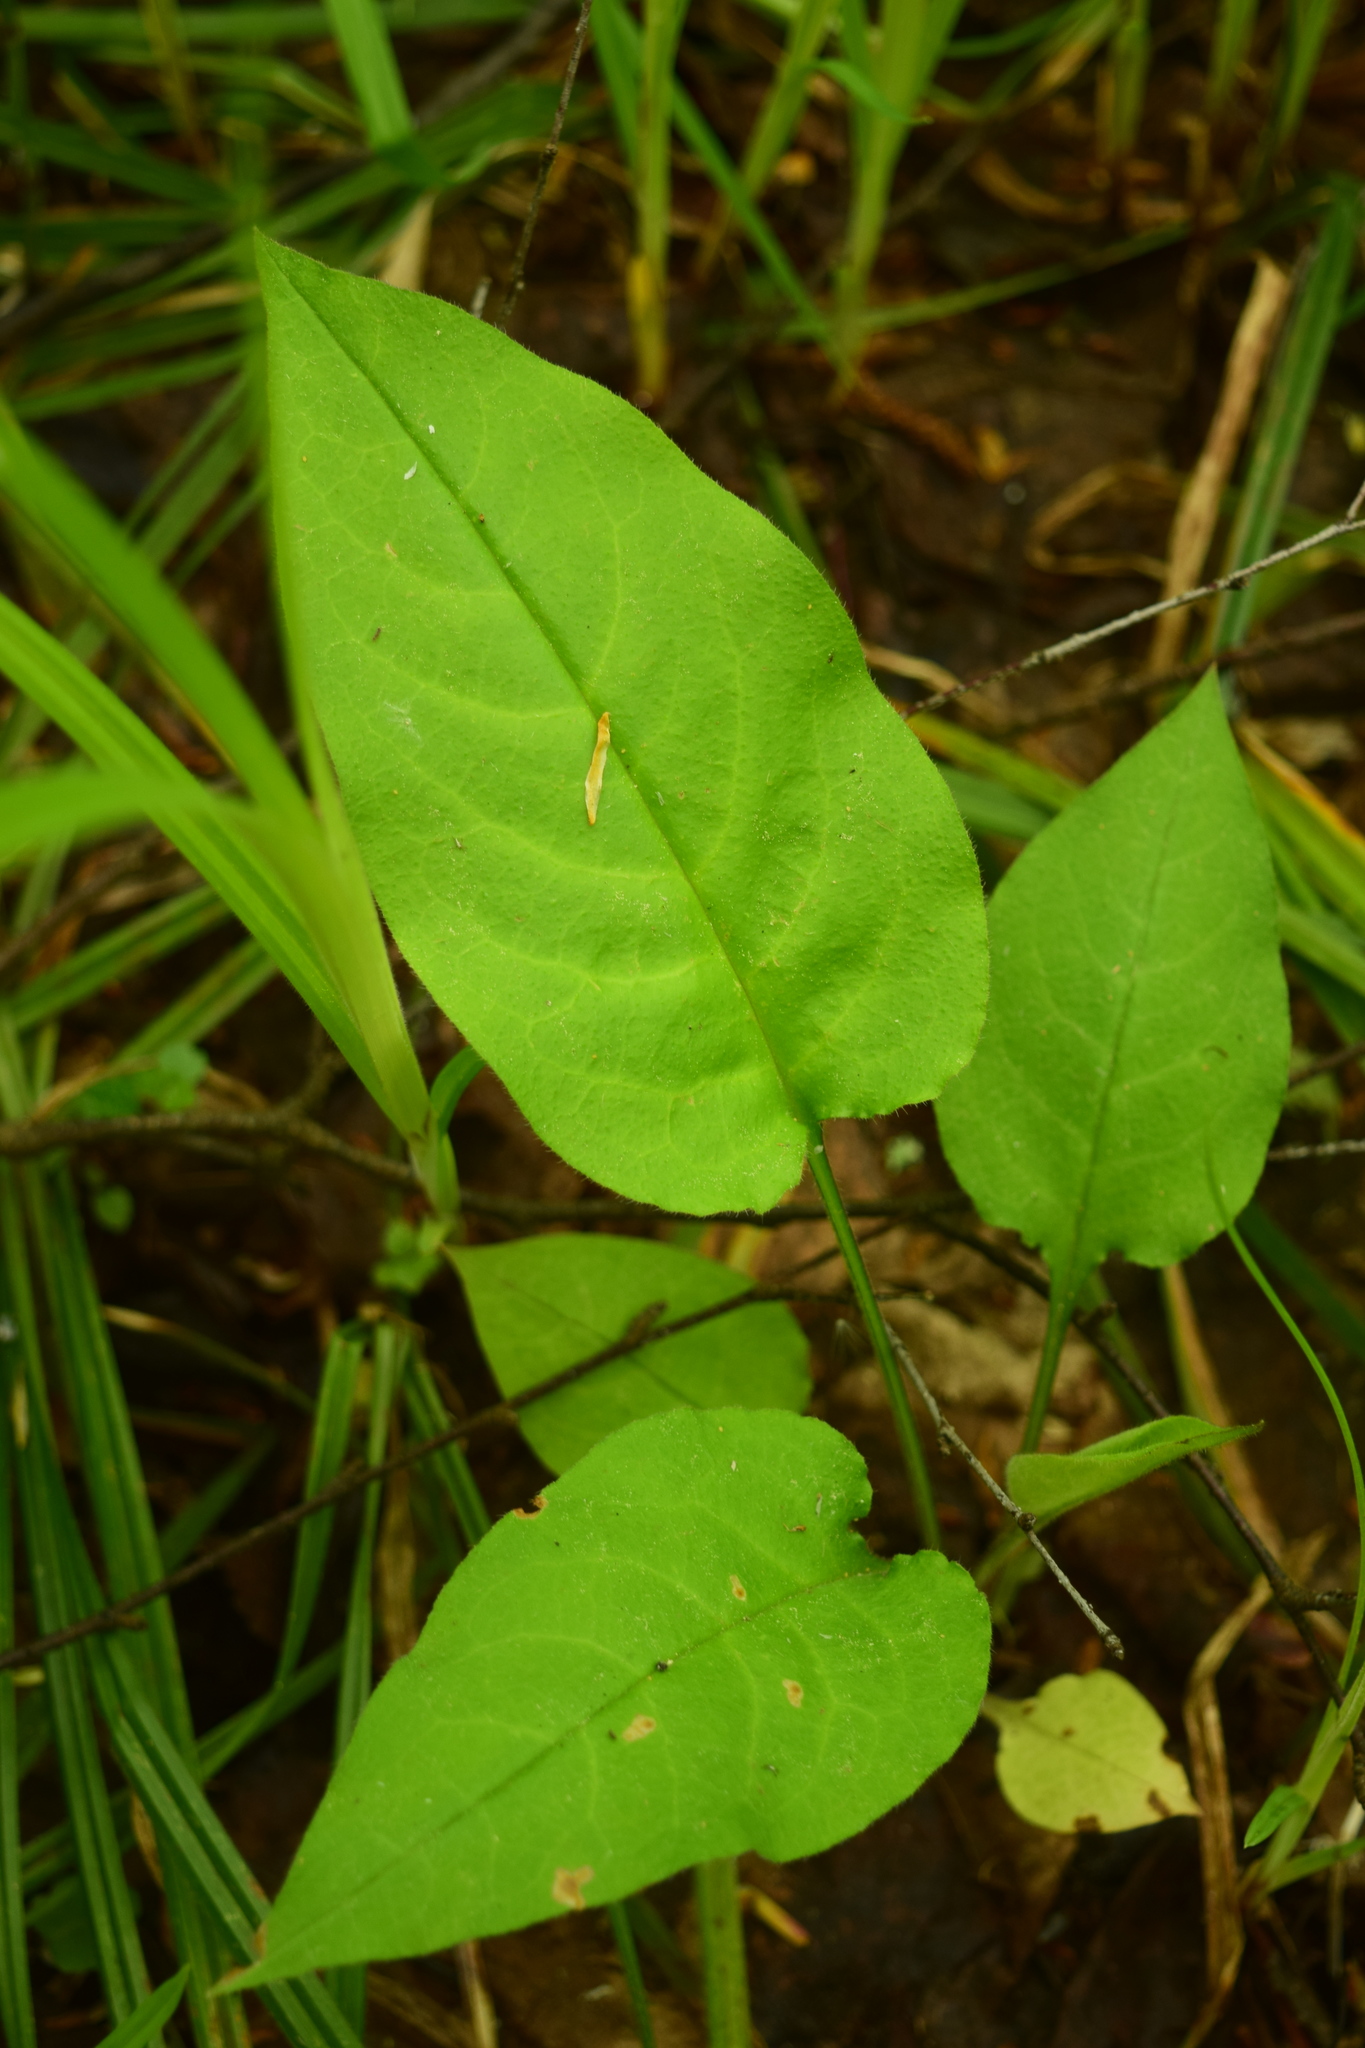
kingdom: Plantae
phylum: Tracheophyta
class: Magnoliopsida
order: Boraginales
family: Boraginaceae
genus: Pulmonaria
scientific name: Pulmonaria obscura
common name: Suffolk lungwort
